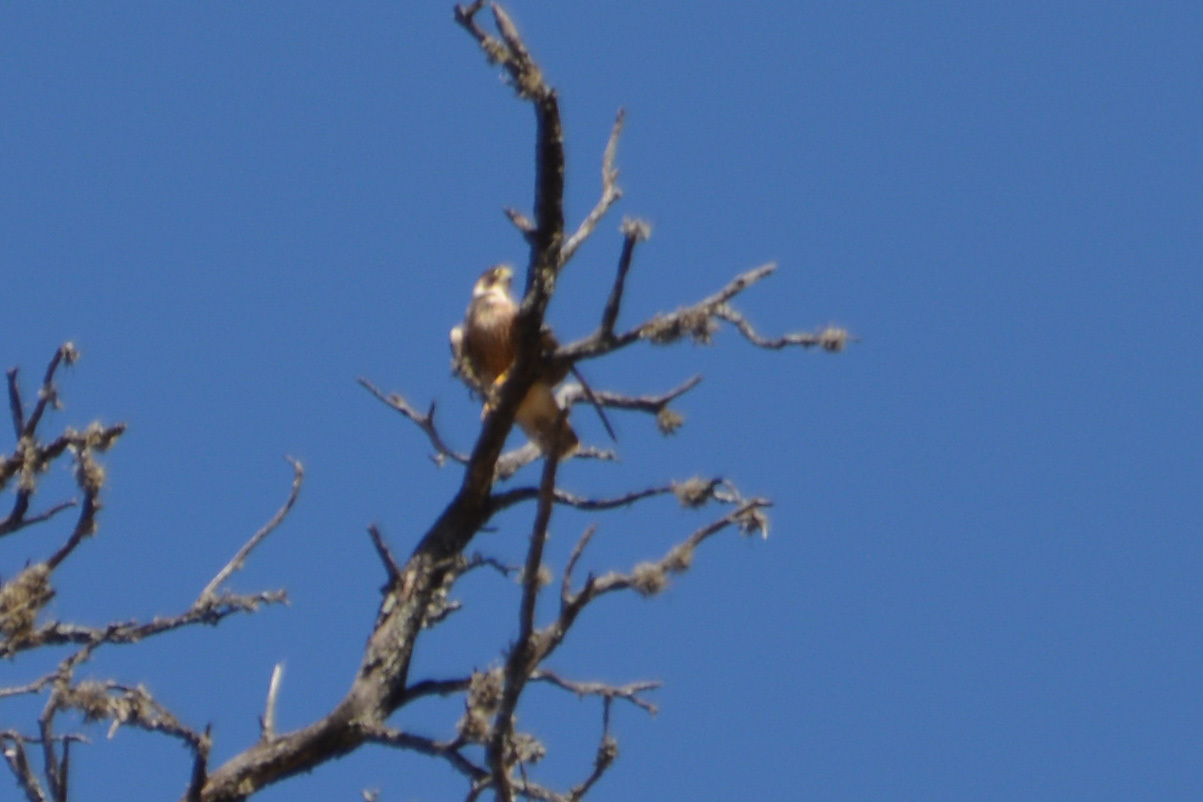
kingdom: Animalia
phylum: Chordata
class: Aves
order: Falconiformes
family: Falconidae
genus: Falco
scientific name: Falco peregrinus
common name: Peregrine falcon
